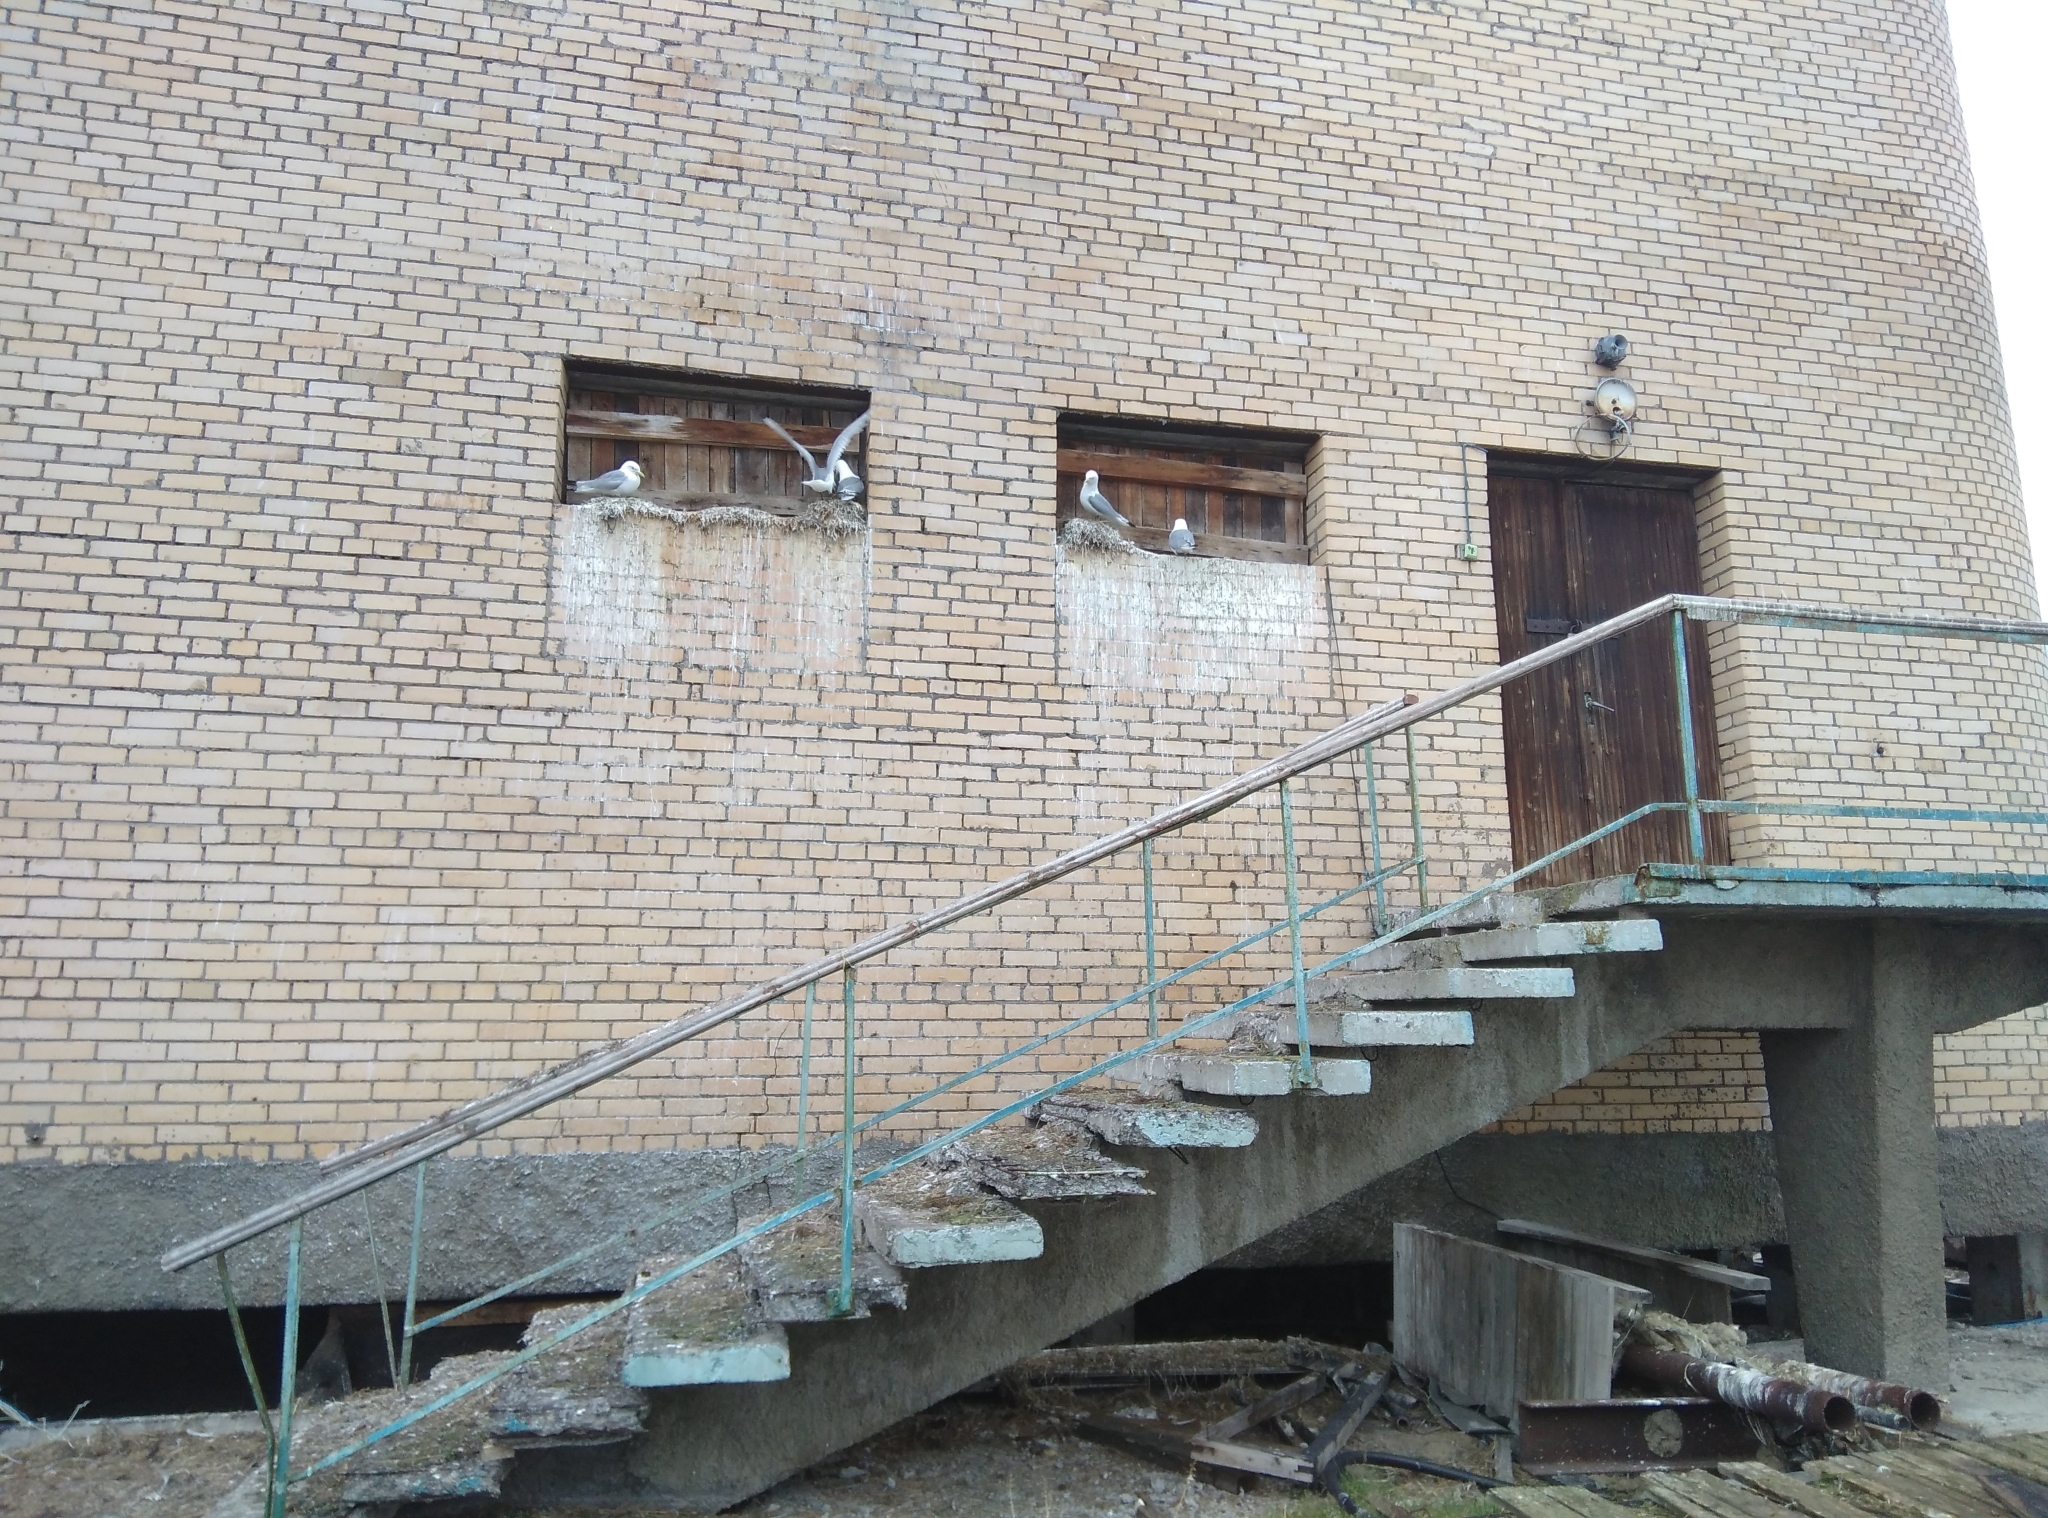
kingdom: Animalia
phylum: Chordata
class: Aves
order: Charadriiformes
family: Laridae
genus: Rissa
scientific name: Rissa tridactyla
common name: Black-legged kittiwake
